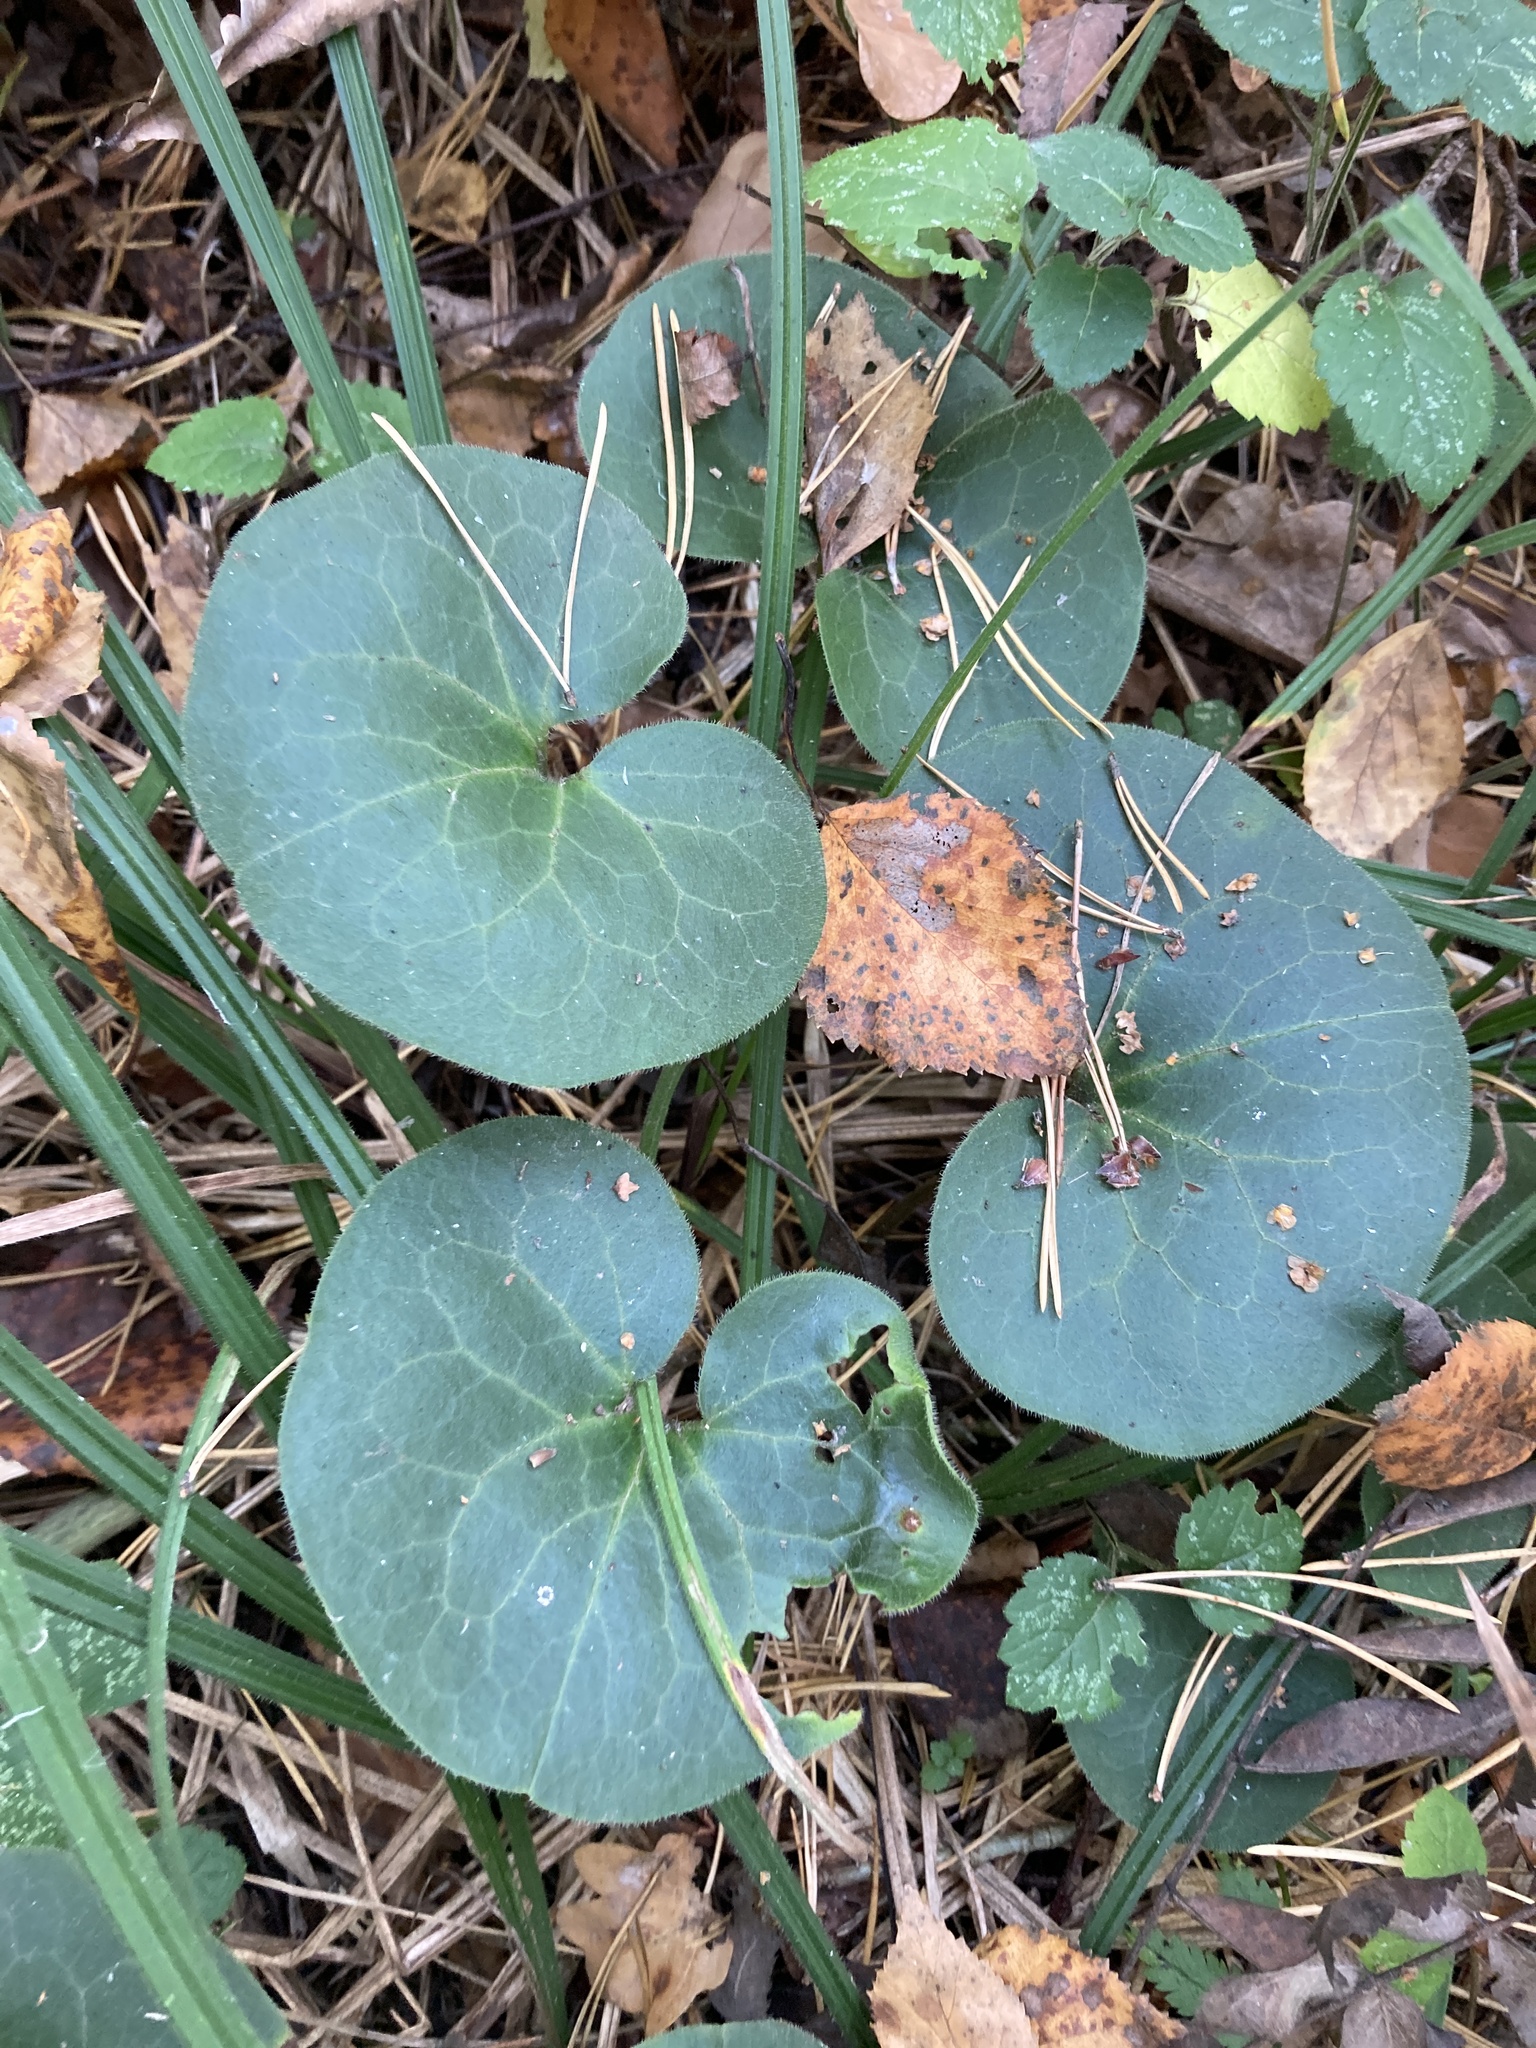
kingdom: Plantae
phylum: Tracheophyta
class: Magnoliopsida
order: Piperales
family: Aristolochiaceae
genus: Asarum
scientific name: Asarum europaeum
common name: Asarabacca
